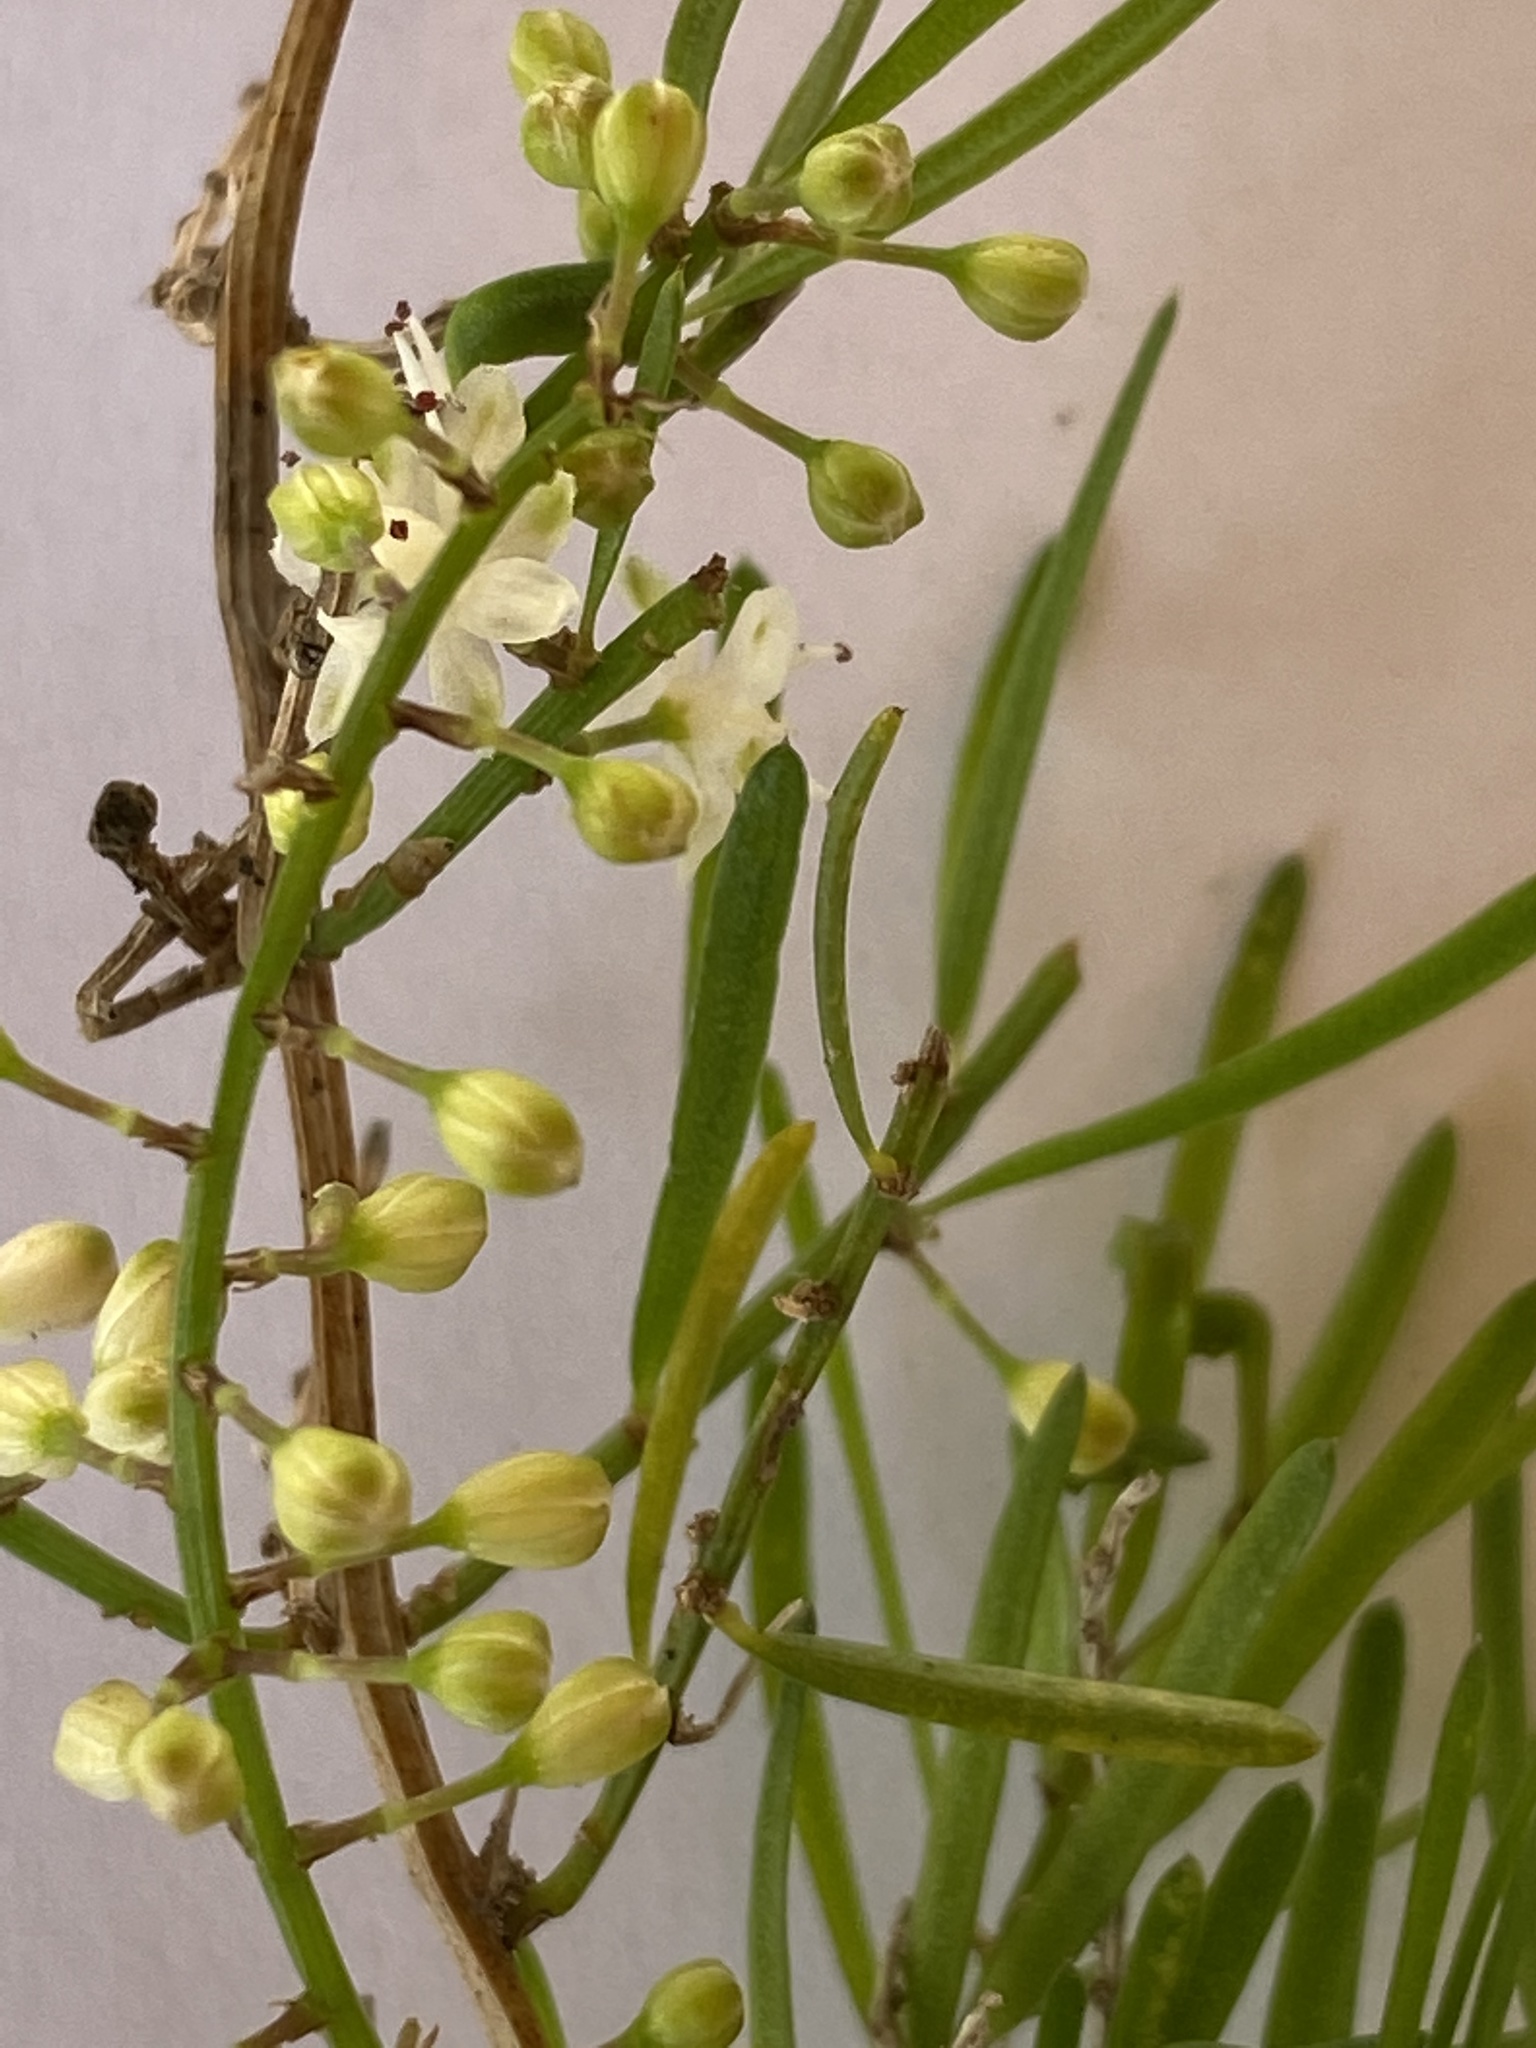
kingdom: Plantae
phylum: Tracheophyta
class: Liliopsida
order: Asparagales
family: Asparagaceae
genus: Asparagus
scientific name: Asparagus aethiopicus
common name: Sprenger's asparagus fern
